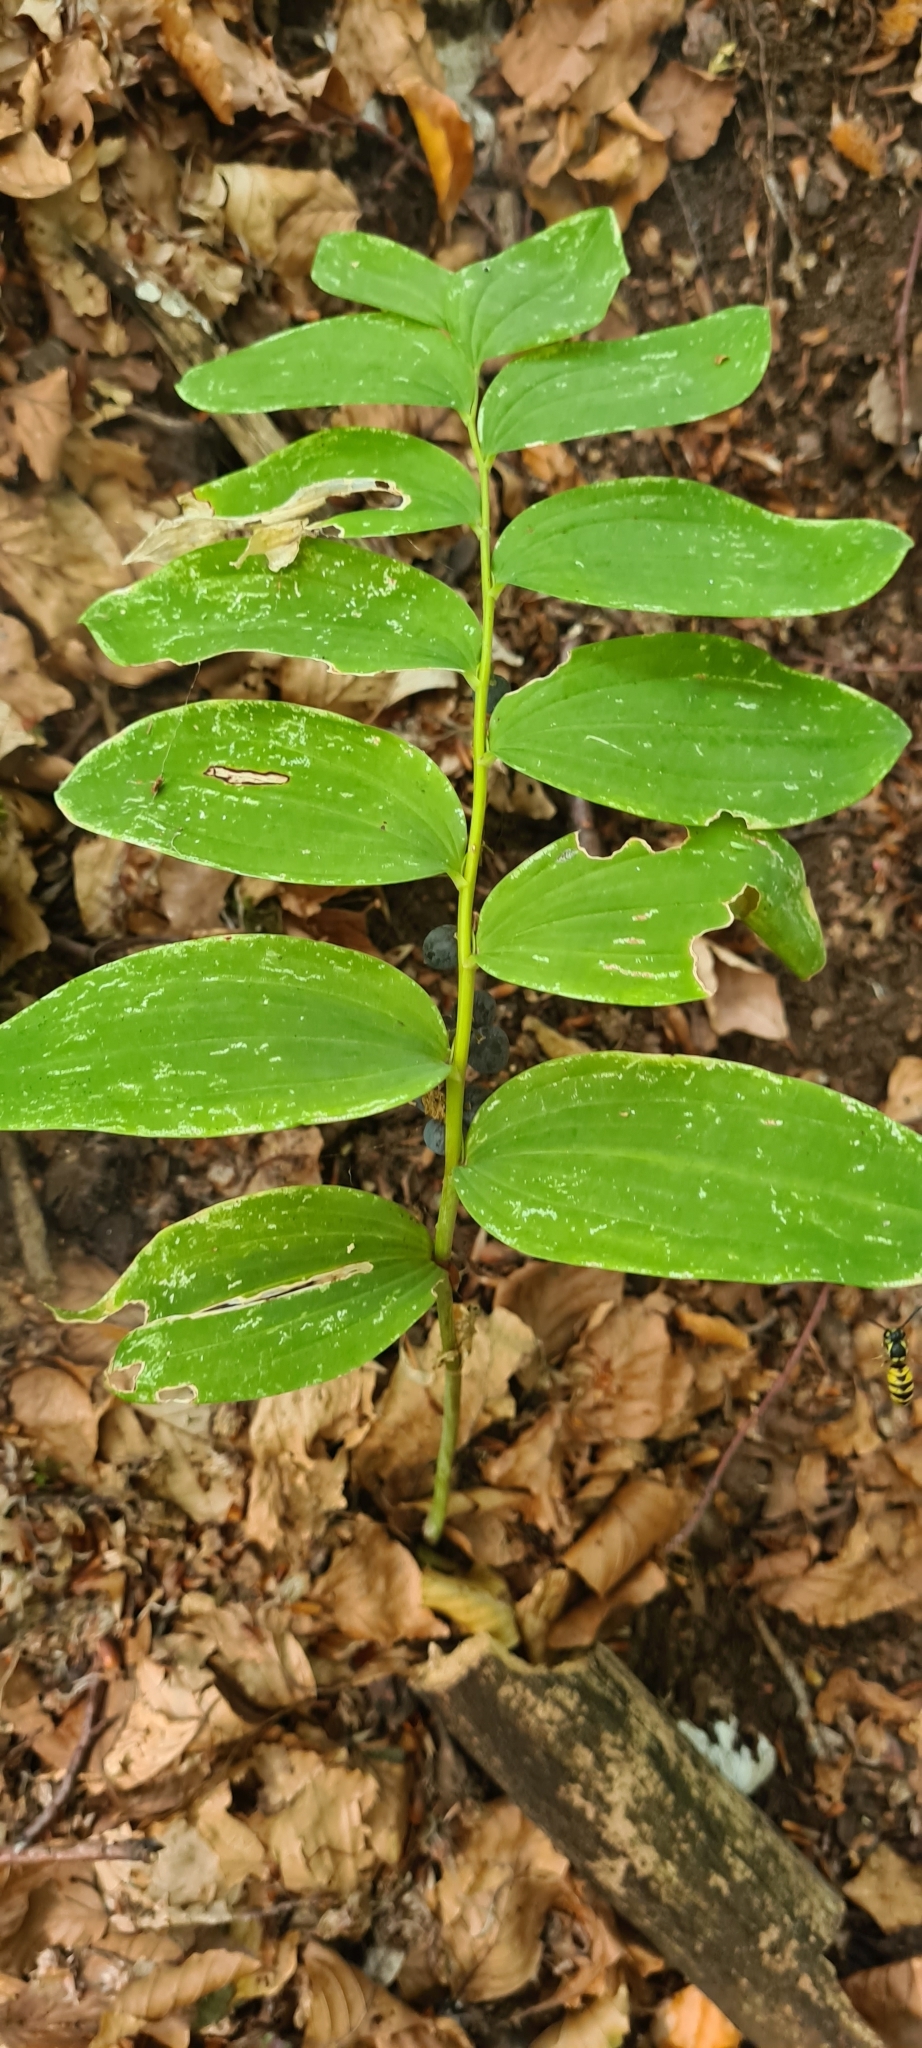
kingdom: Plantae
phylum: Tracheophyta
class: Liliopsida
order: Asparagales
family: Asparagaceae
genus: Polygonatum
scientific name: Polygonatum multiflorum
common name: Solomon's-seal
